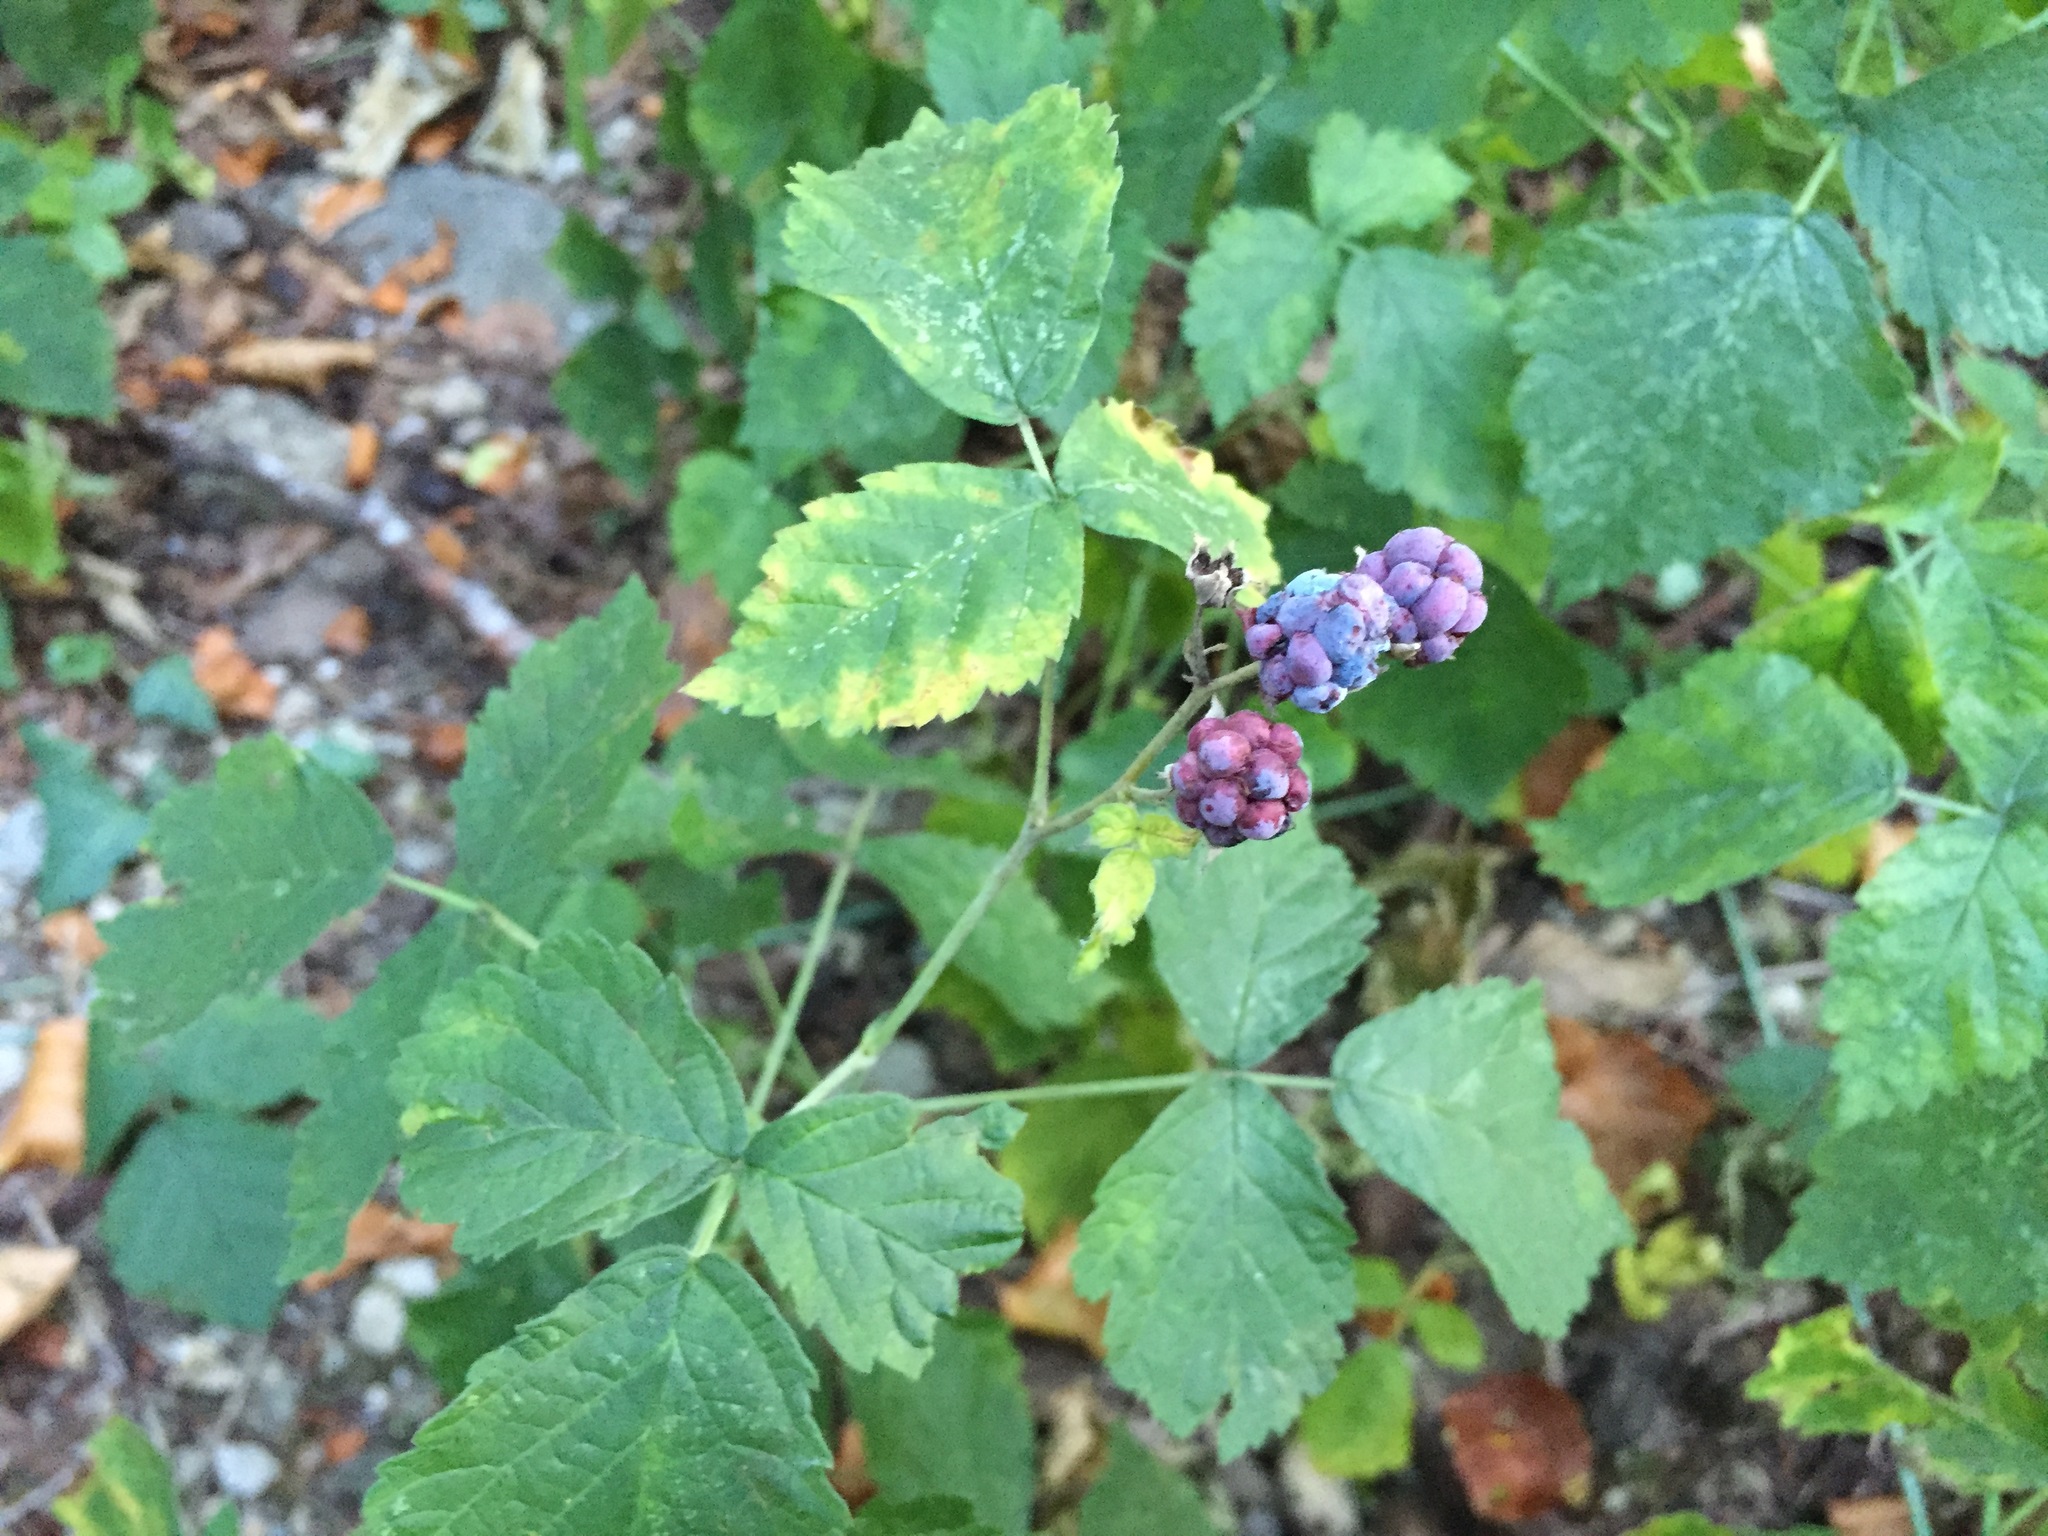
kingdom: Plantae
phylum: Tracheophyta
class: Magnoliopsida
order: Rosales
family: Rosaceae
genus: Rubus
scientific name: Rubus caesius
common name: Dewberry
